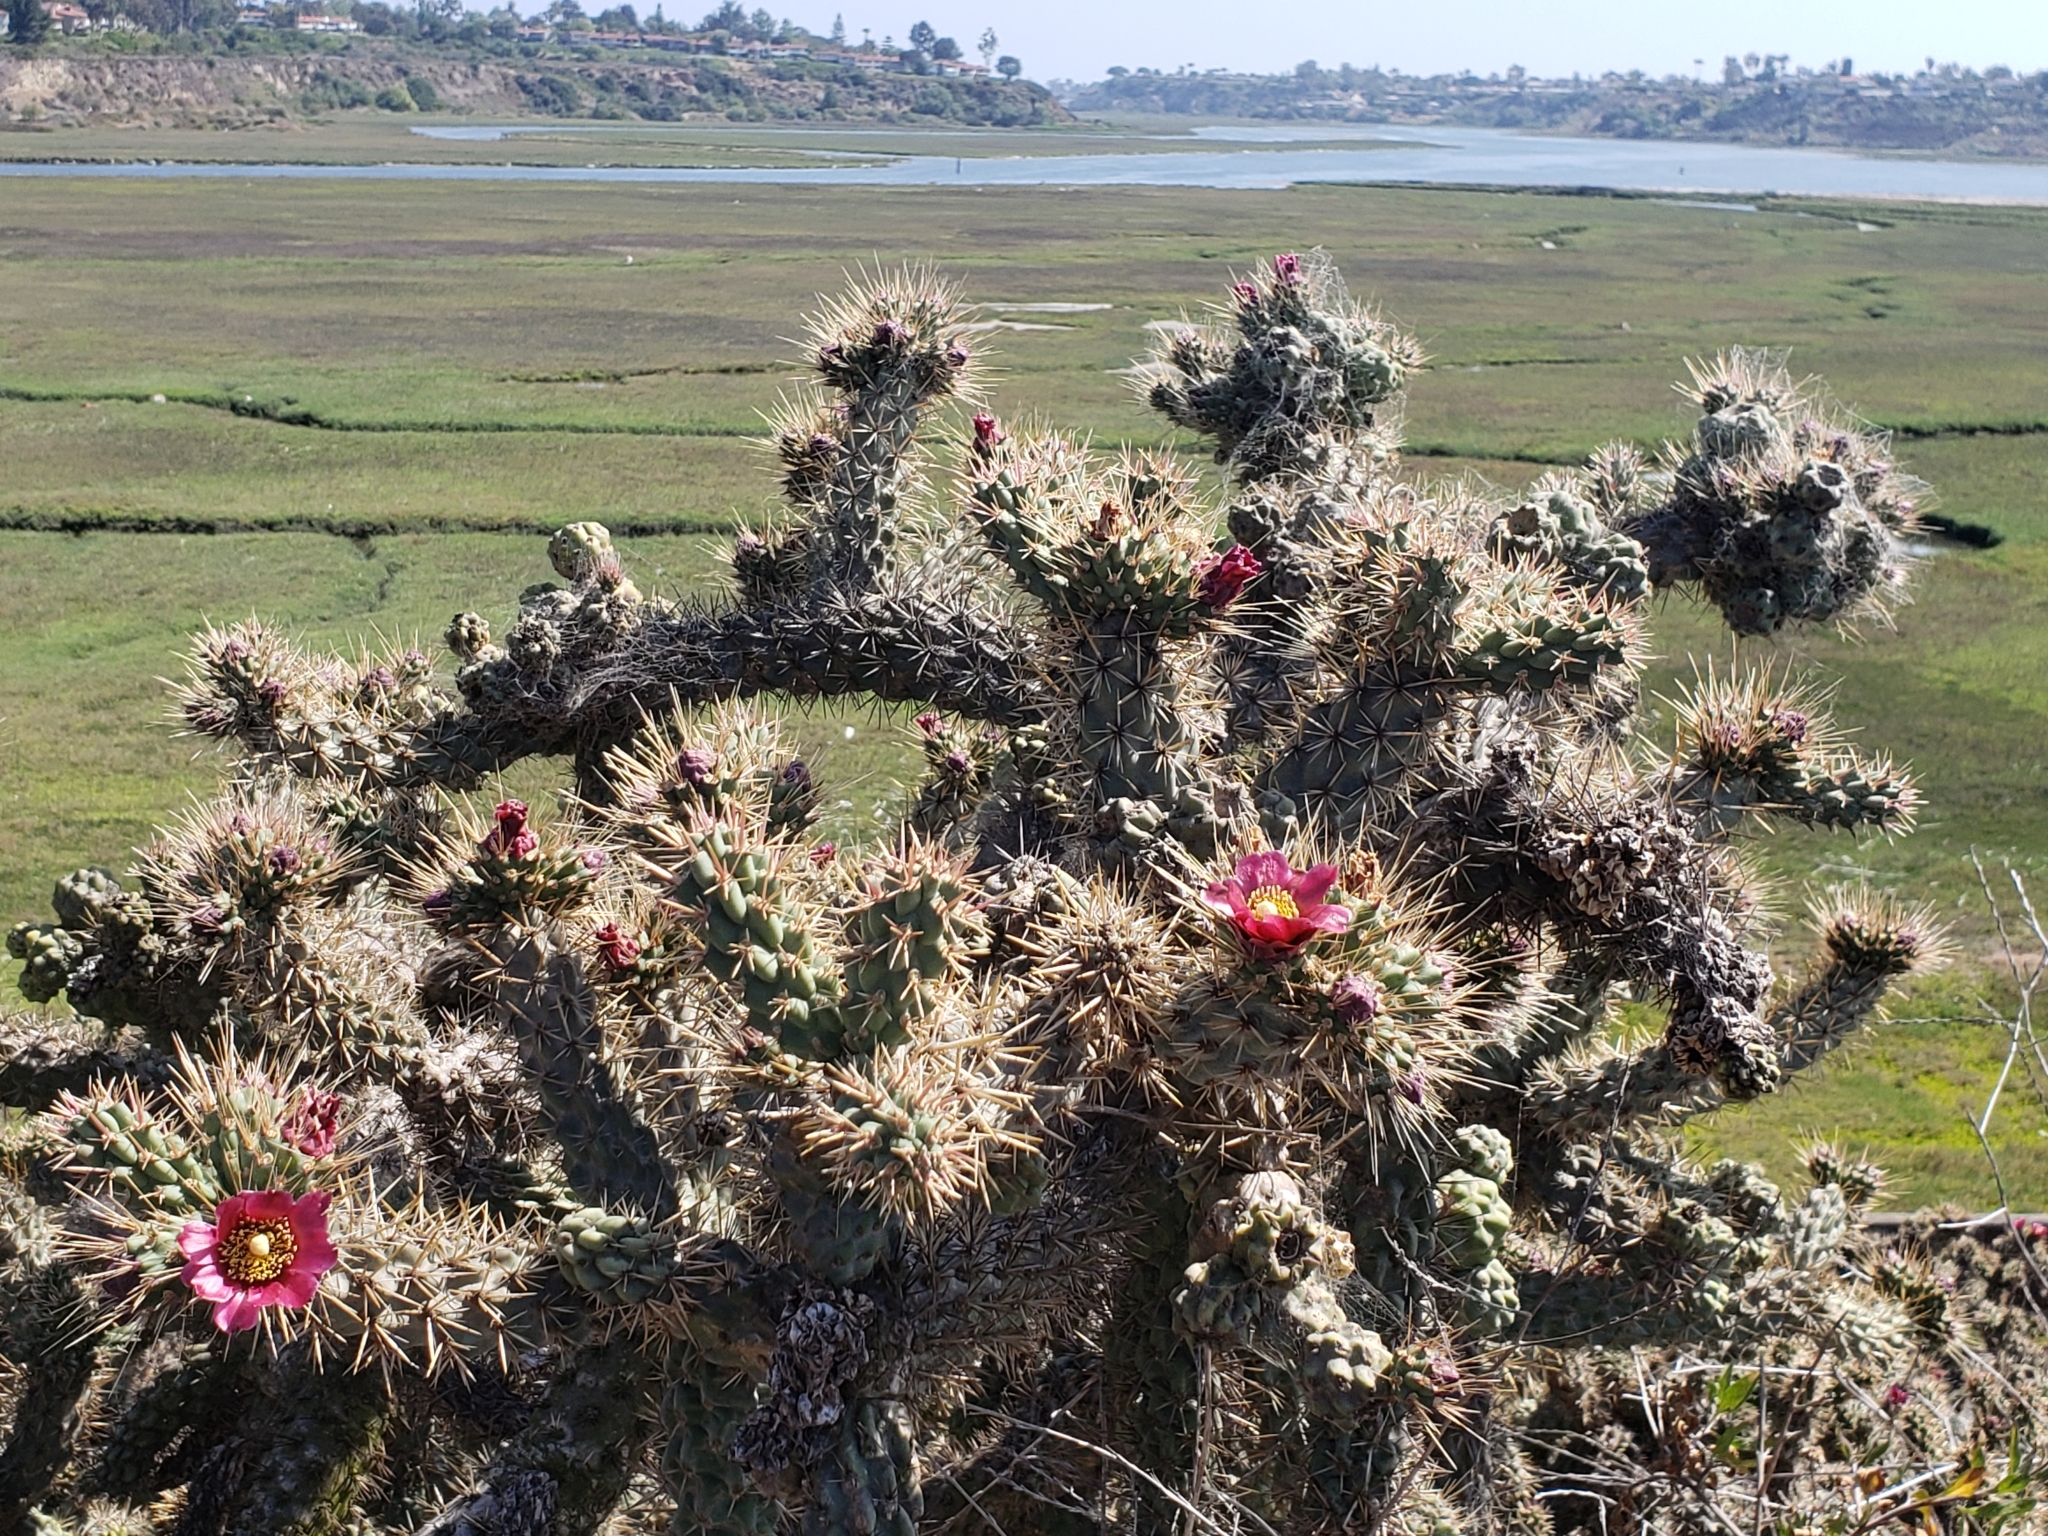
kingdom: Plantae
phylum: Tracheophyta
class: Magnoliopsida
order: Caryophyllales
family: Cactaceae
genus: Cylindropuntia
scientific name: Cylindropuntia prolifera
